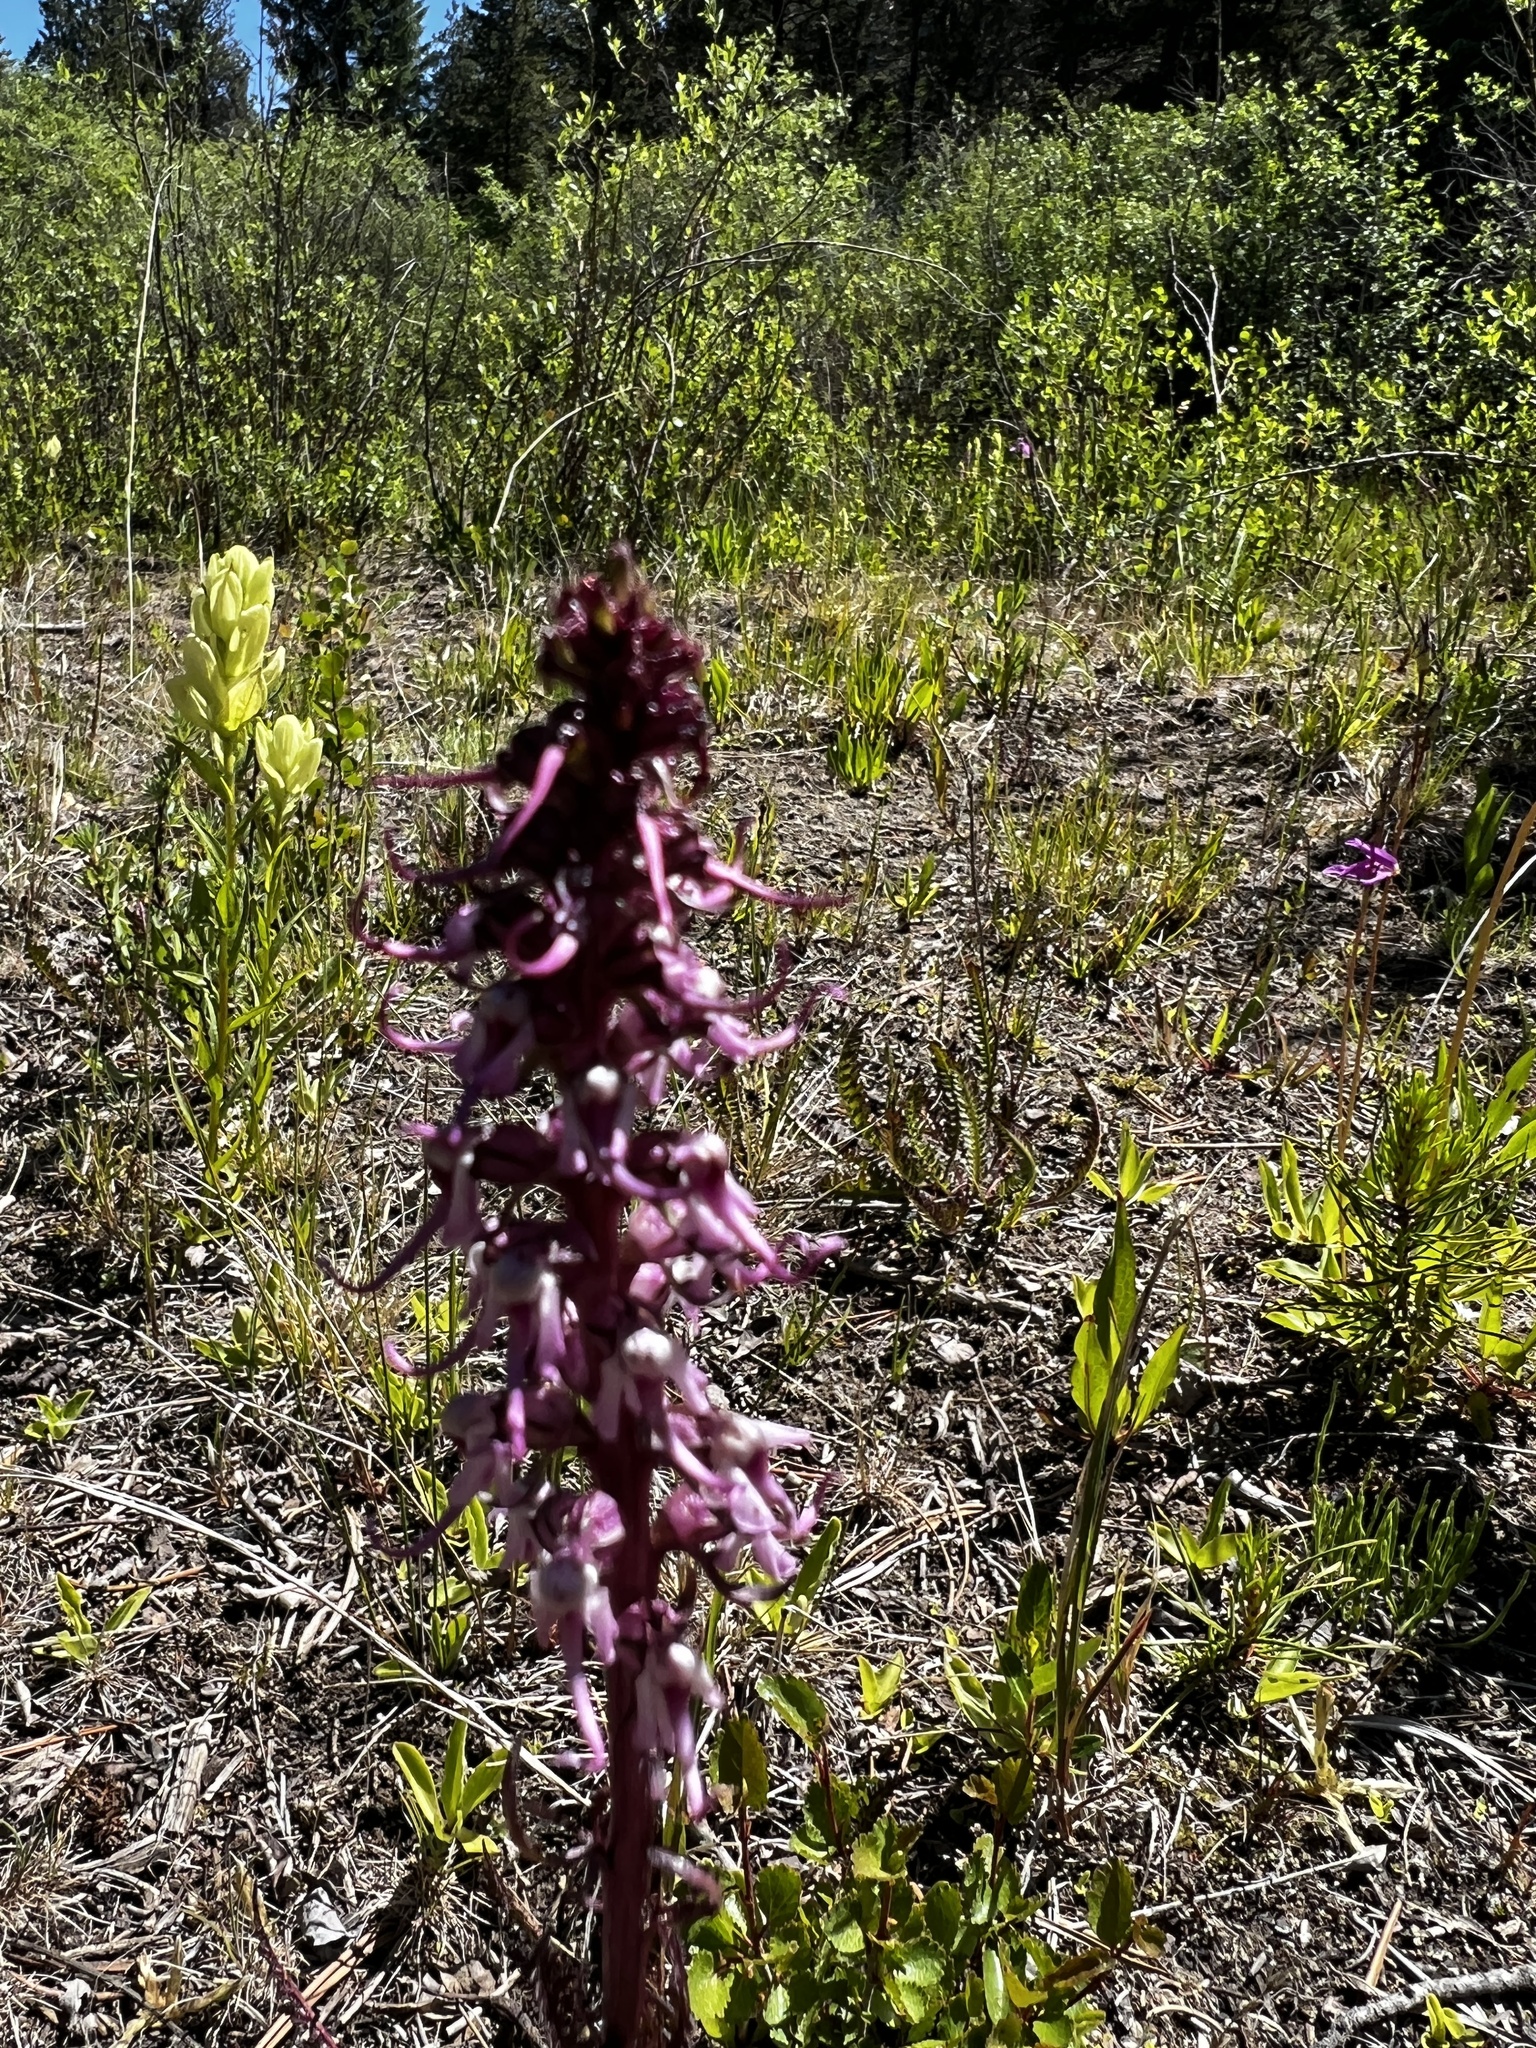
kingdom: Plantae
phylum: Tracheophyta
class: Magnoliopsida
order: Lamiales
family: Orobanchaceae
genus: Pedicularis
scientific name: Pedicularis groenlandica
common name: Elephant's-head
